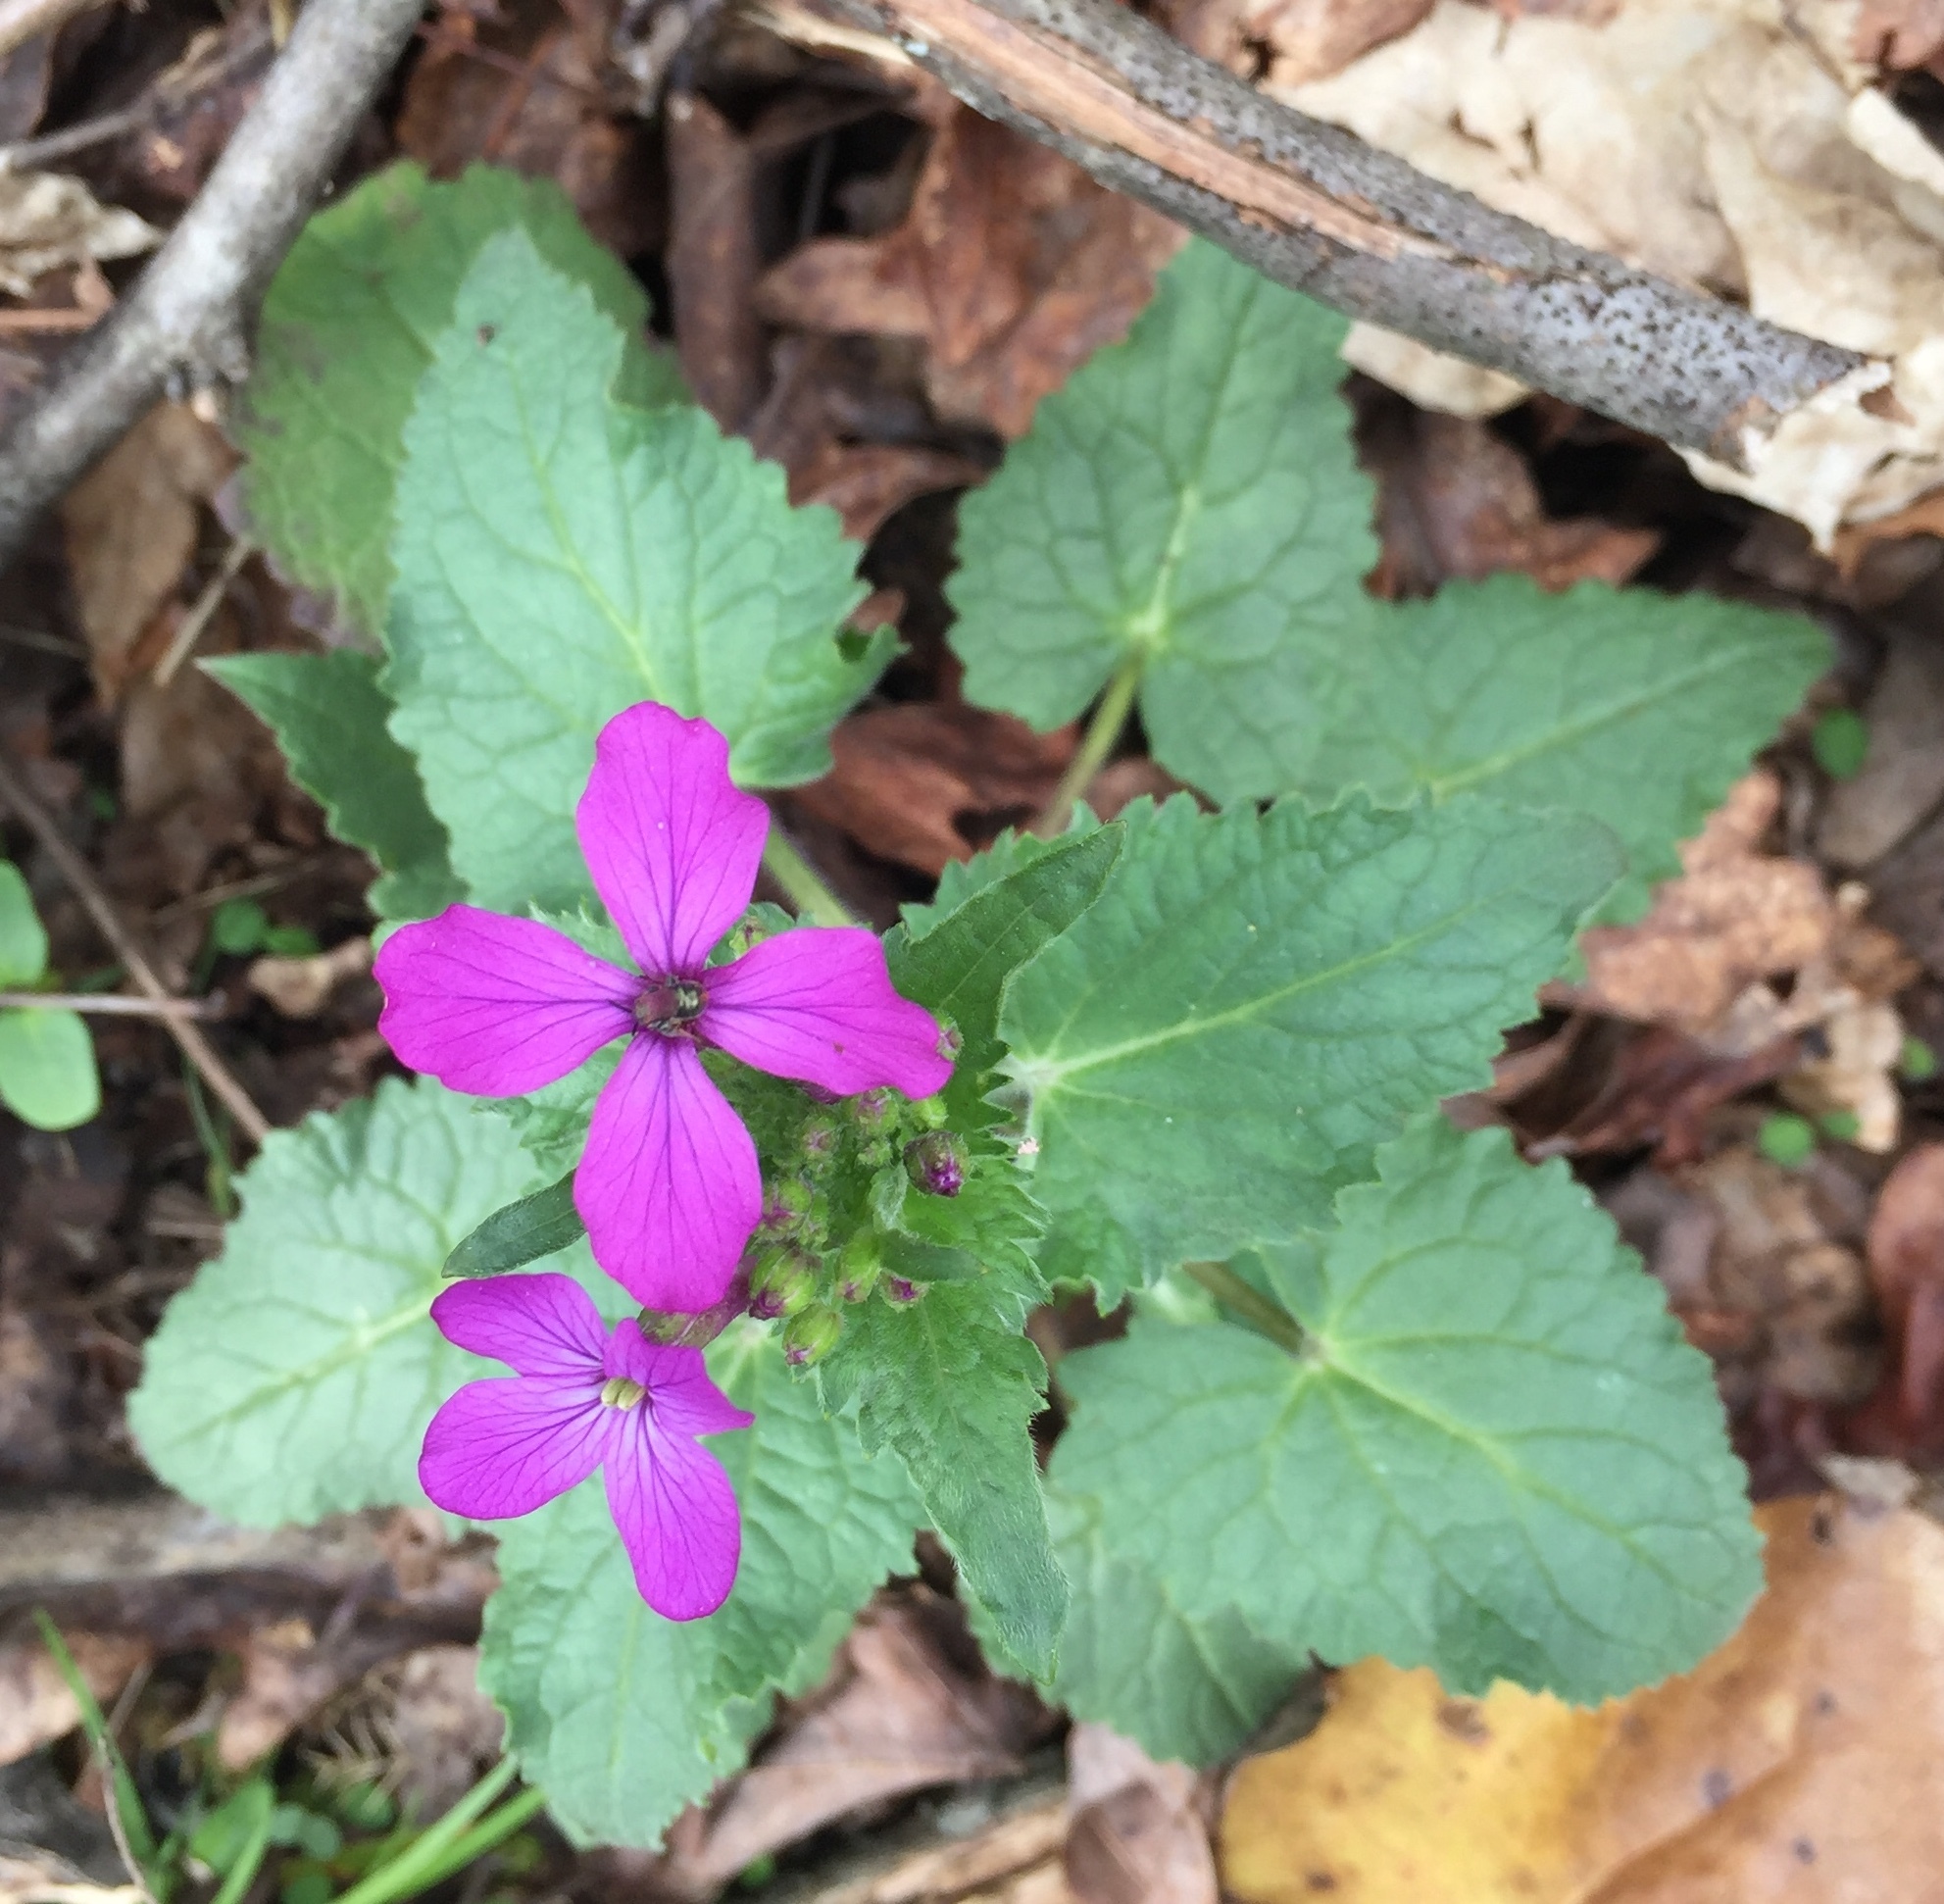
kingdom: Plantae
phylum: Tracheophyta
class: Magnoliopsida
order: Brassicales
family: Brassicaceae
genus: Lunaria
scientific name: Lunaria annua
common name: Honesty
